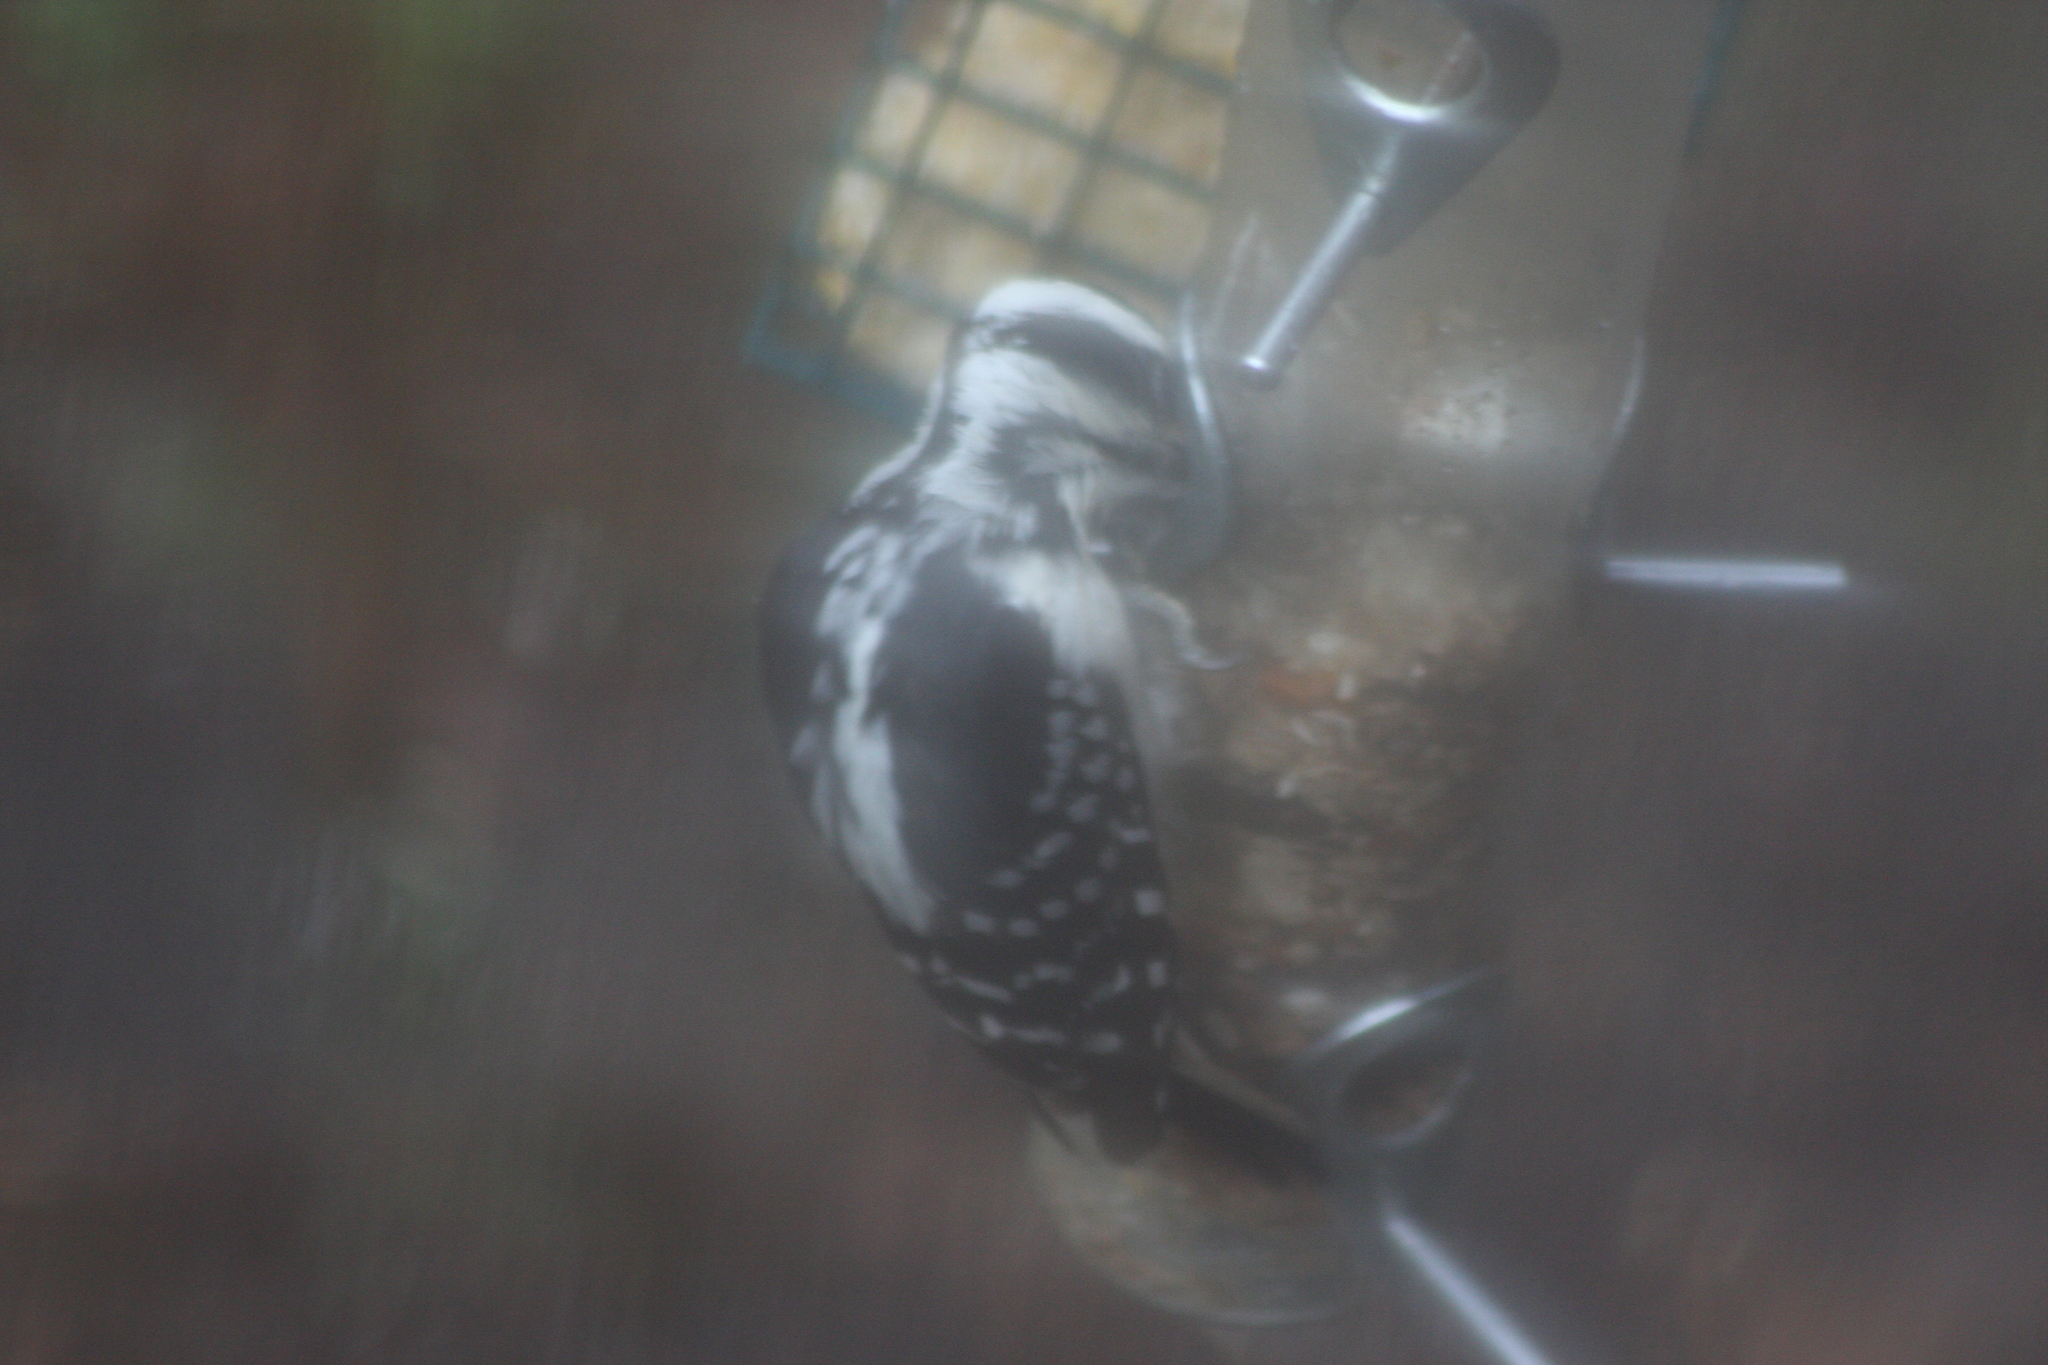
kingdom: Animalia
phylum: Chordata
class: Aves
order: Piciformes
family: Picidae
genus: Leuconotopicus
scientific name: Leuconotopicus villosus
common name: Hairy woodpecker
